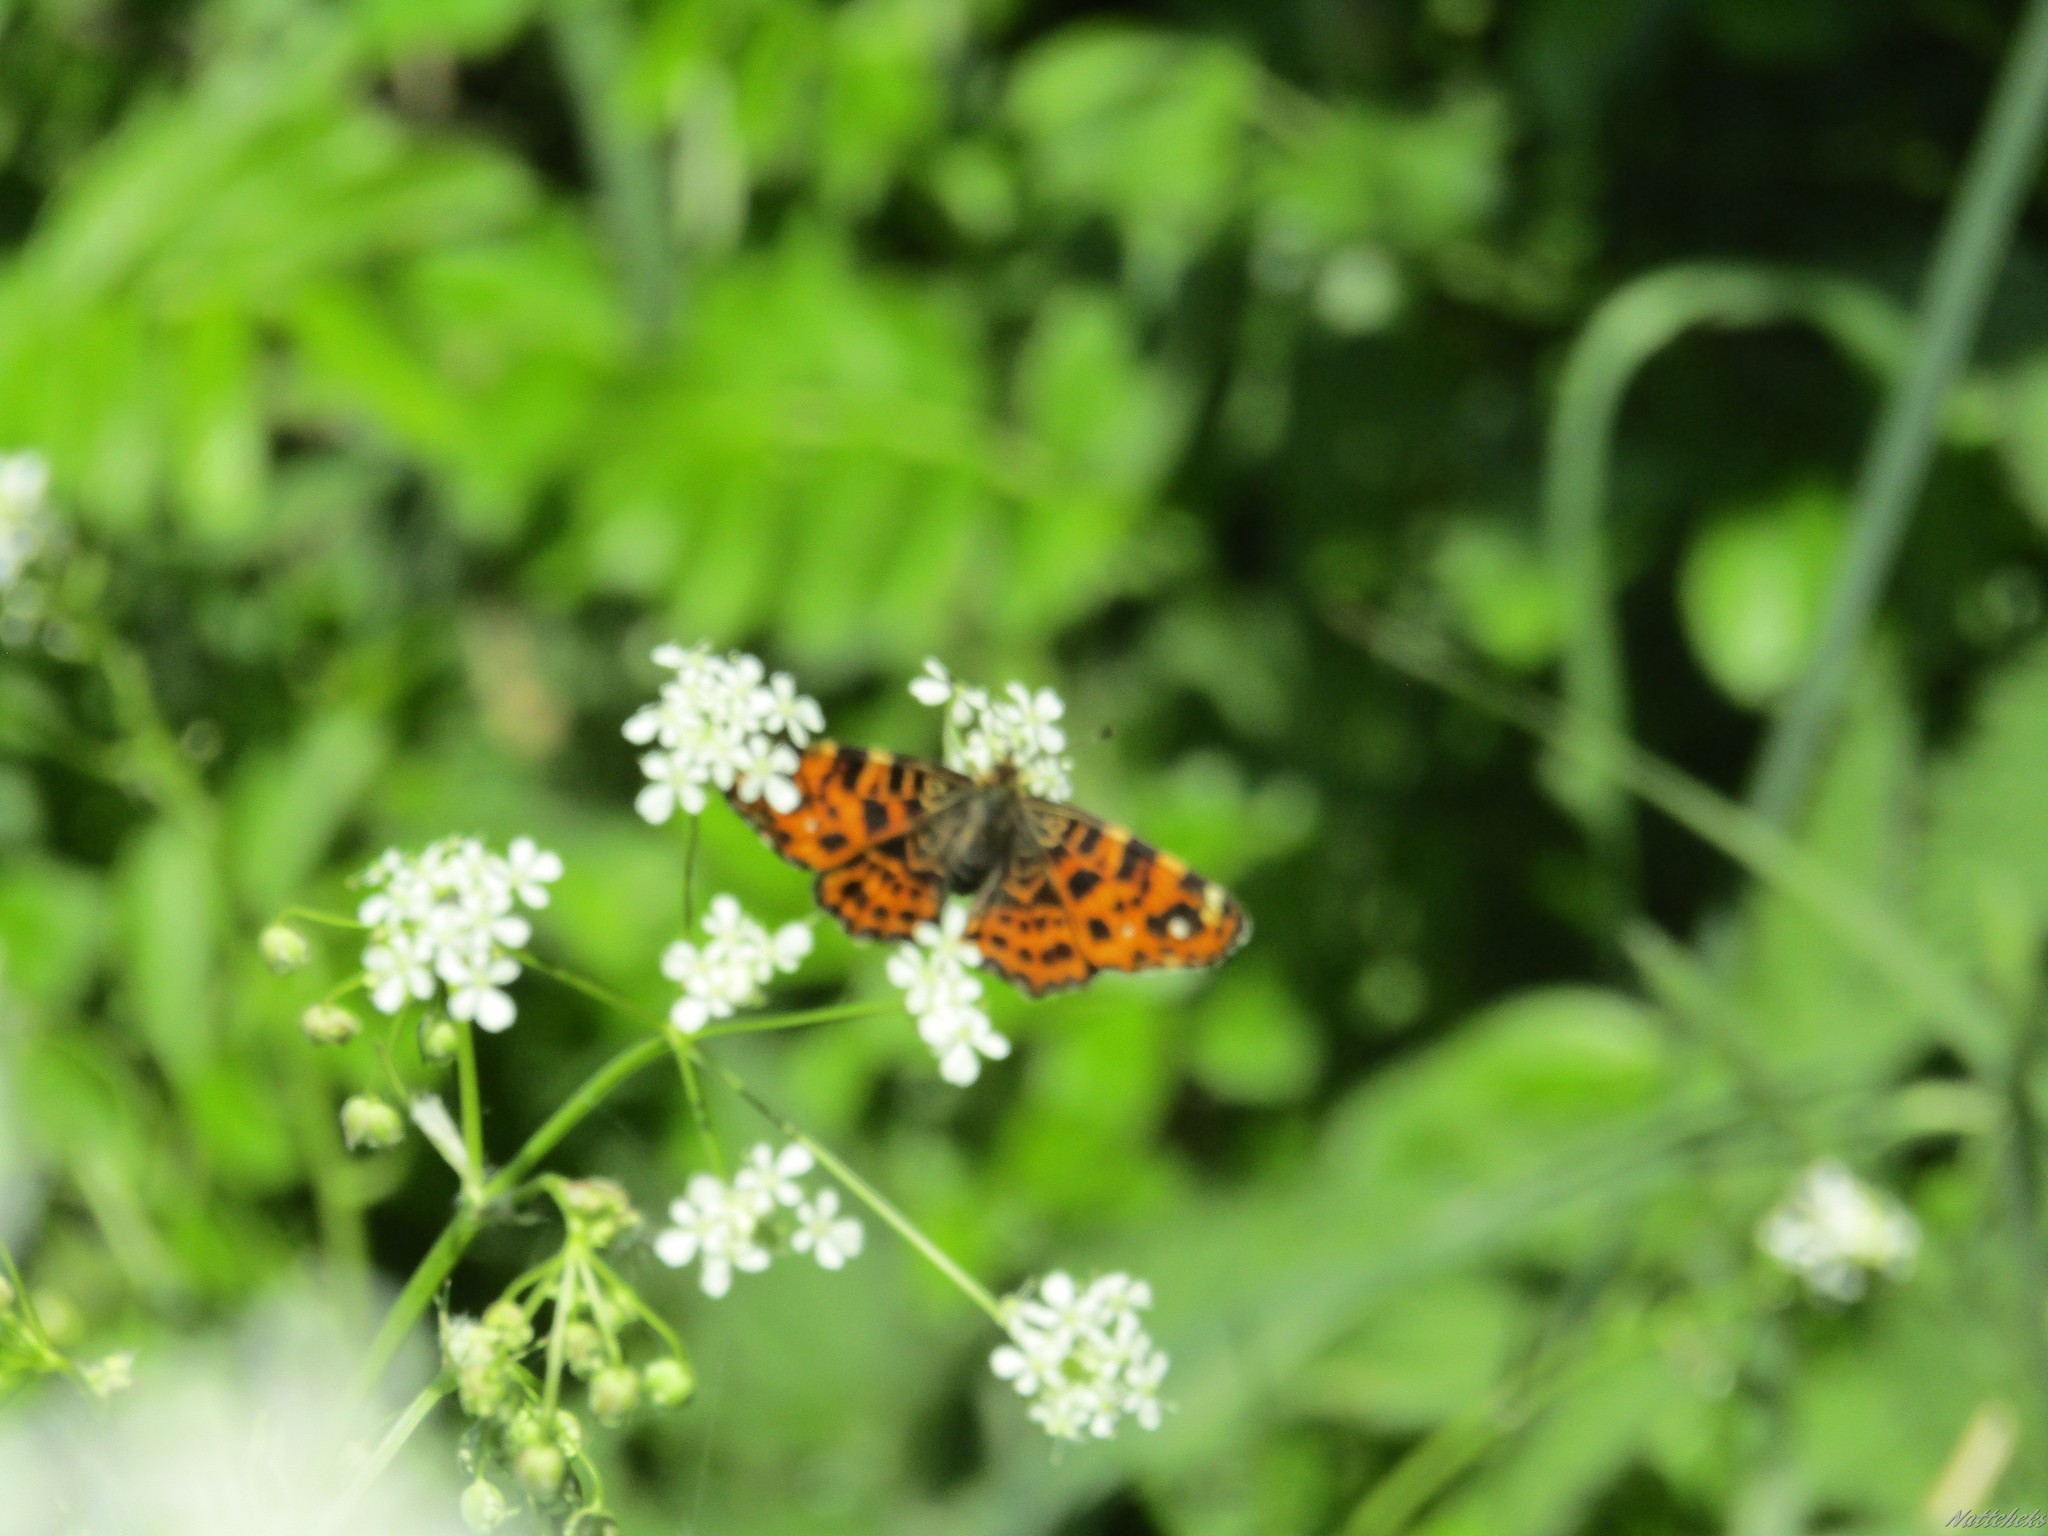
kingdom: Animalia
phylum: Arthropoda
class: Insecta
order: Lepidoptera
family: Nymphalidae
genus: Araschnia
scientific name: Araschnia levana
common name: Map butterfly
